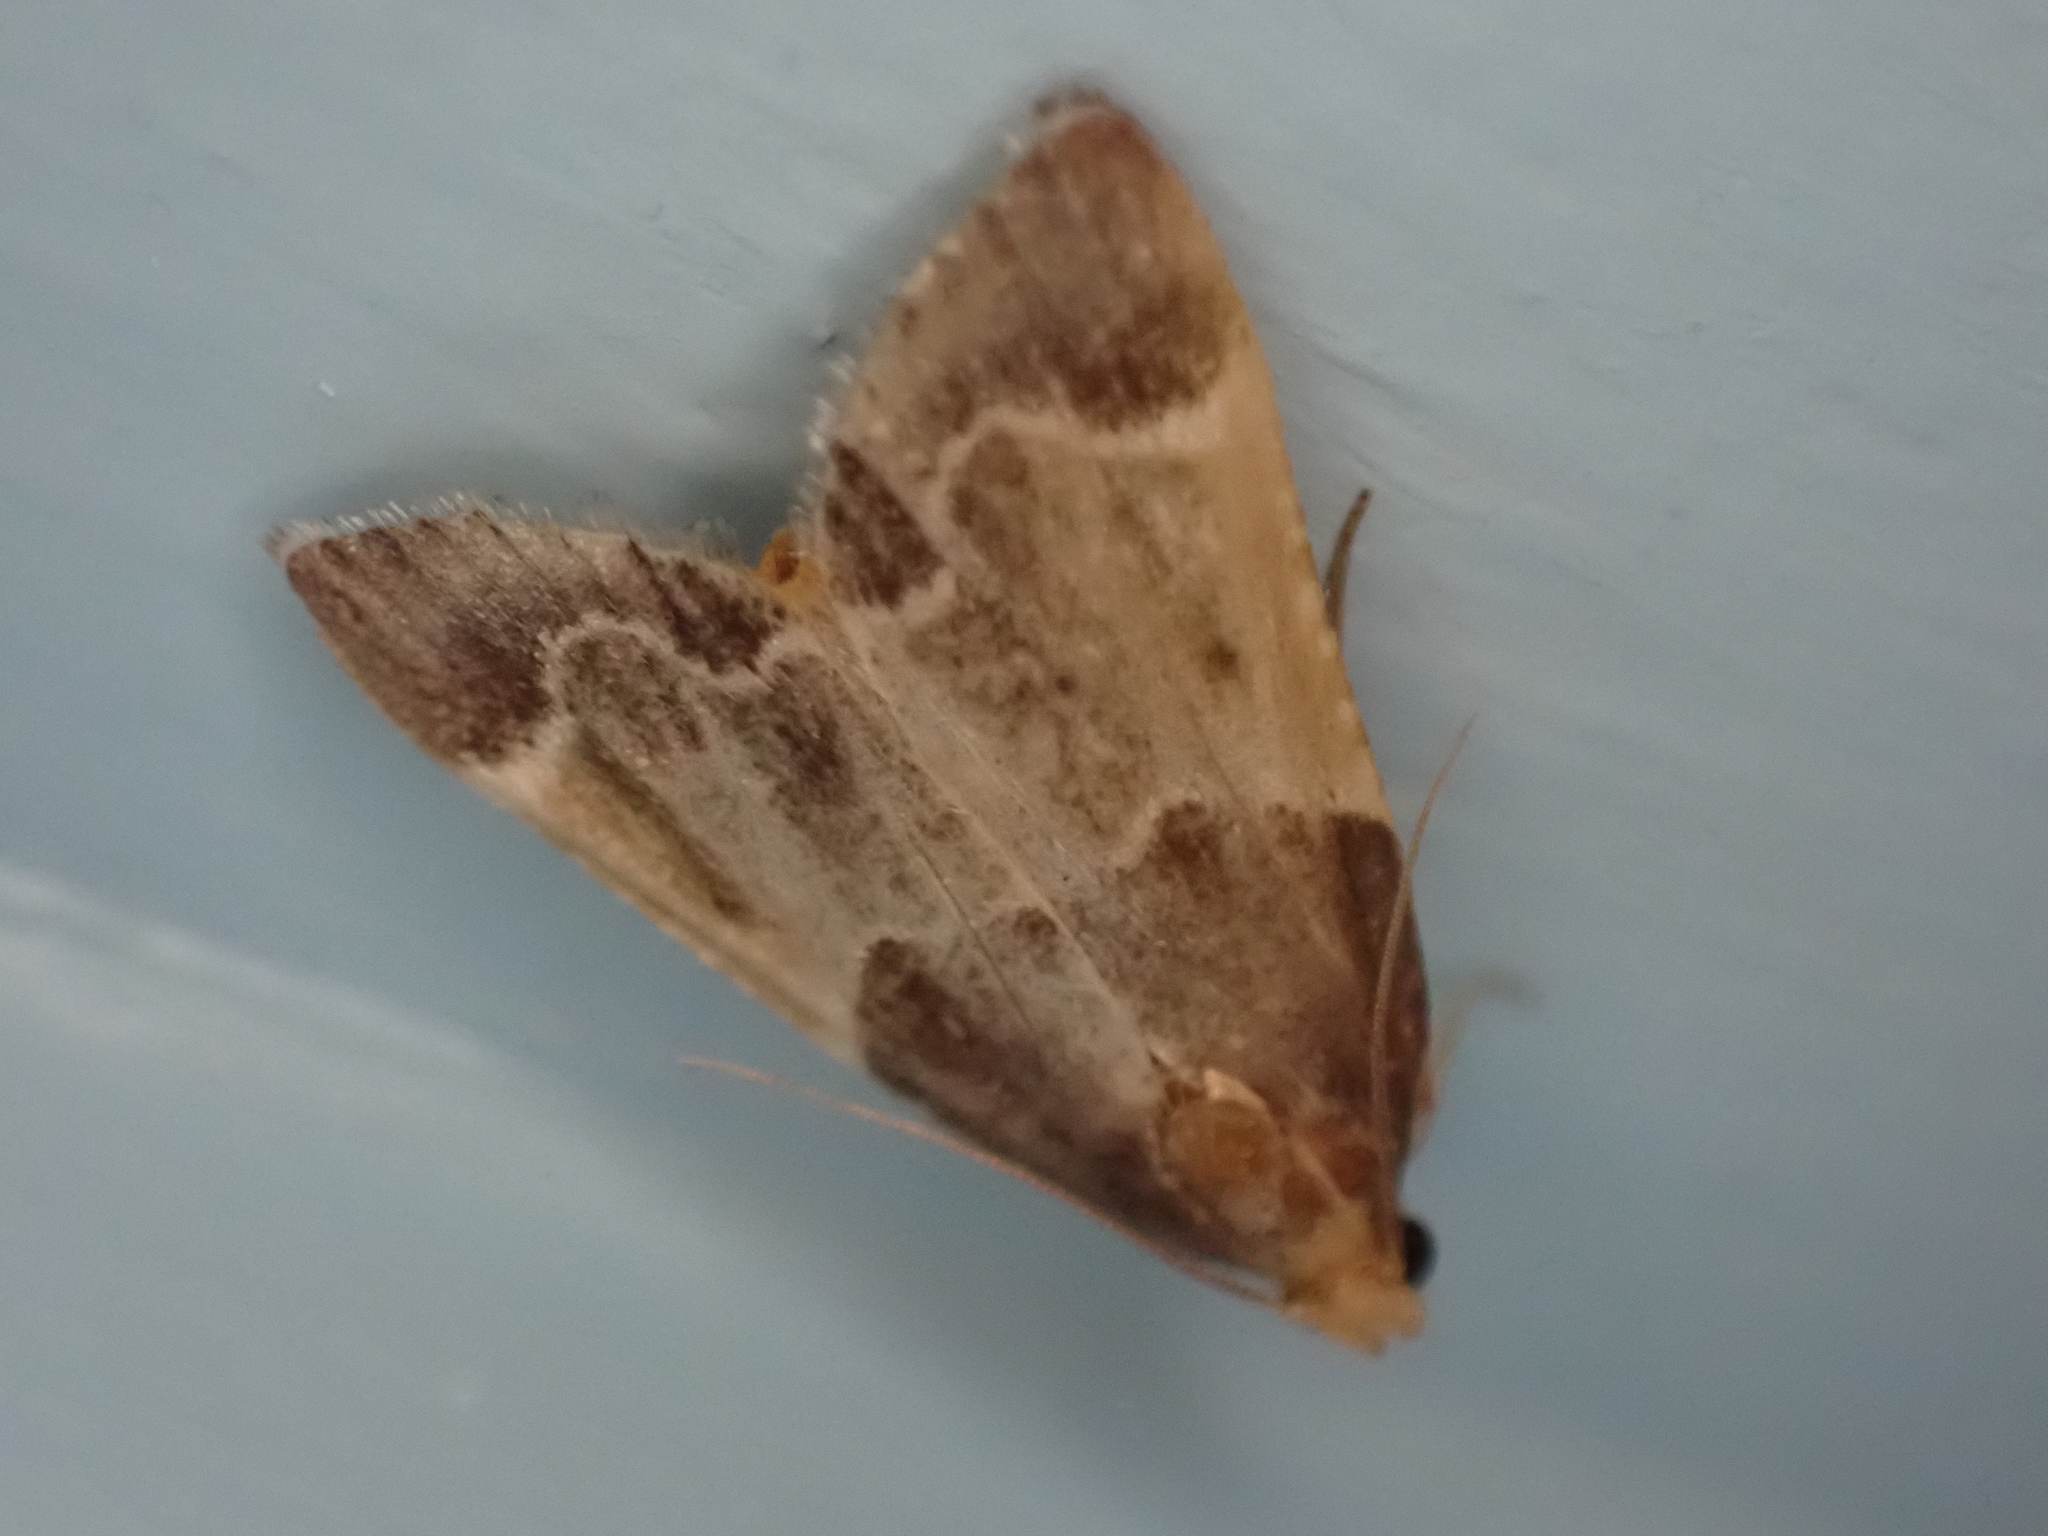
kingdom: Animalia
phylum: Arthropoda
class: Insecta
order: Lepidoptera
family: Pyralidae
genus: Pyralis
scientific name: Pyralis farinalis
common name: Meal moth
